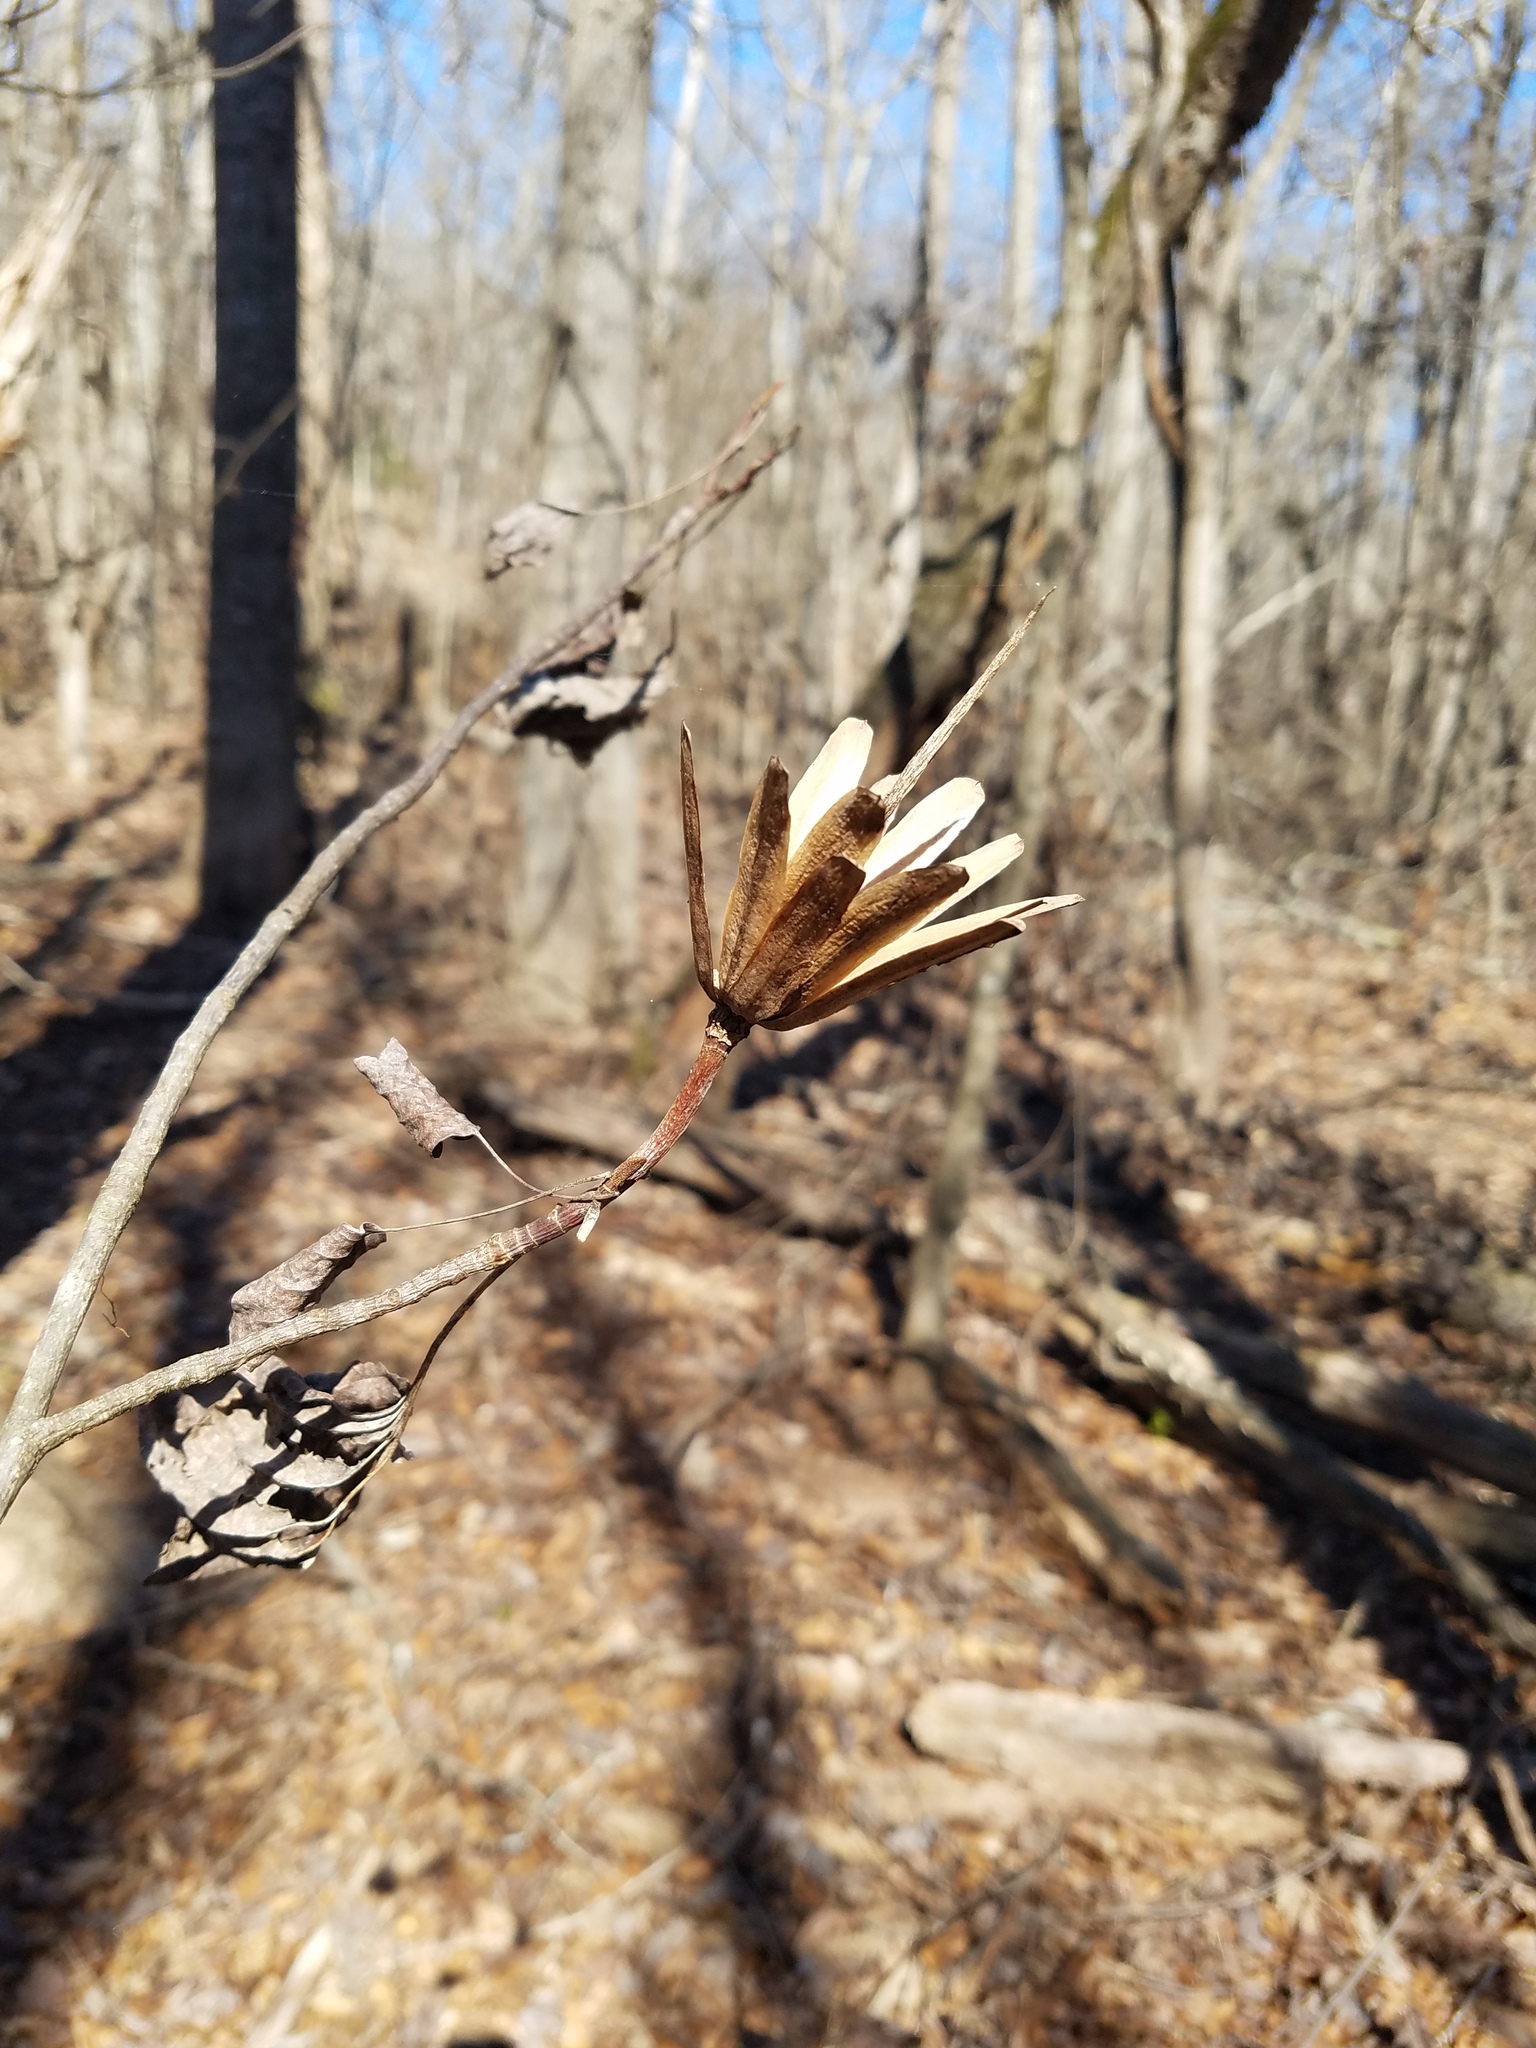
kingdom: Plantae
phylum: Tracheophyta
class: Magnoliopsida
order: Magnoliales
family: Magnoliaceae
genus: Liriodendron
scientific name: Liriodendron tulipifera
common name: Tulip tree
